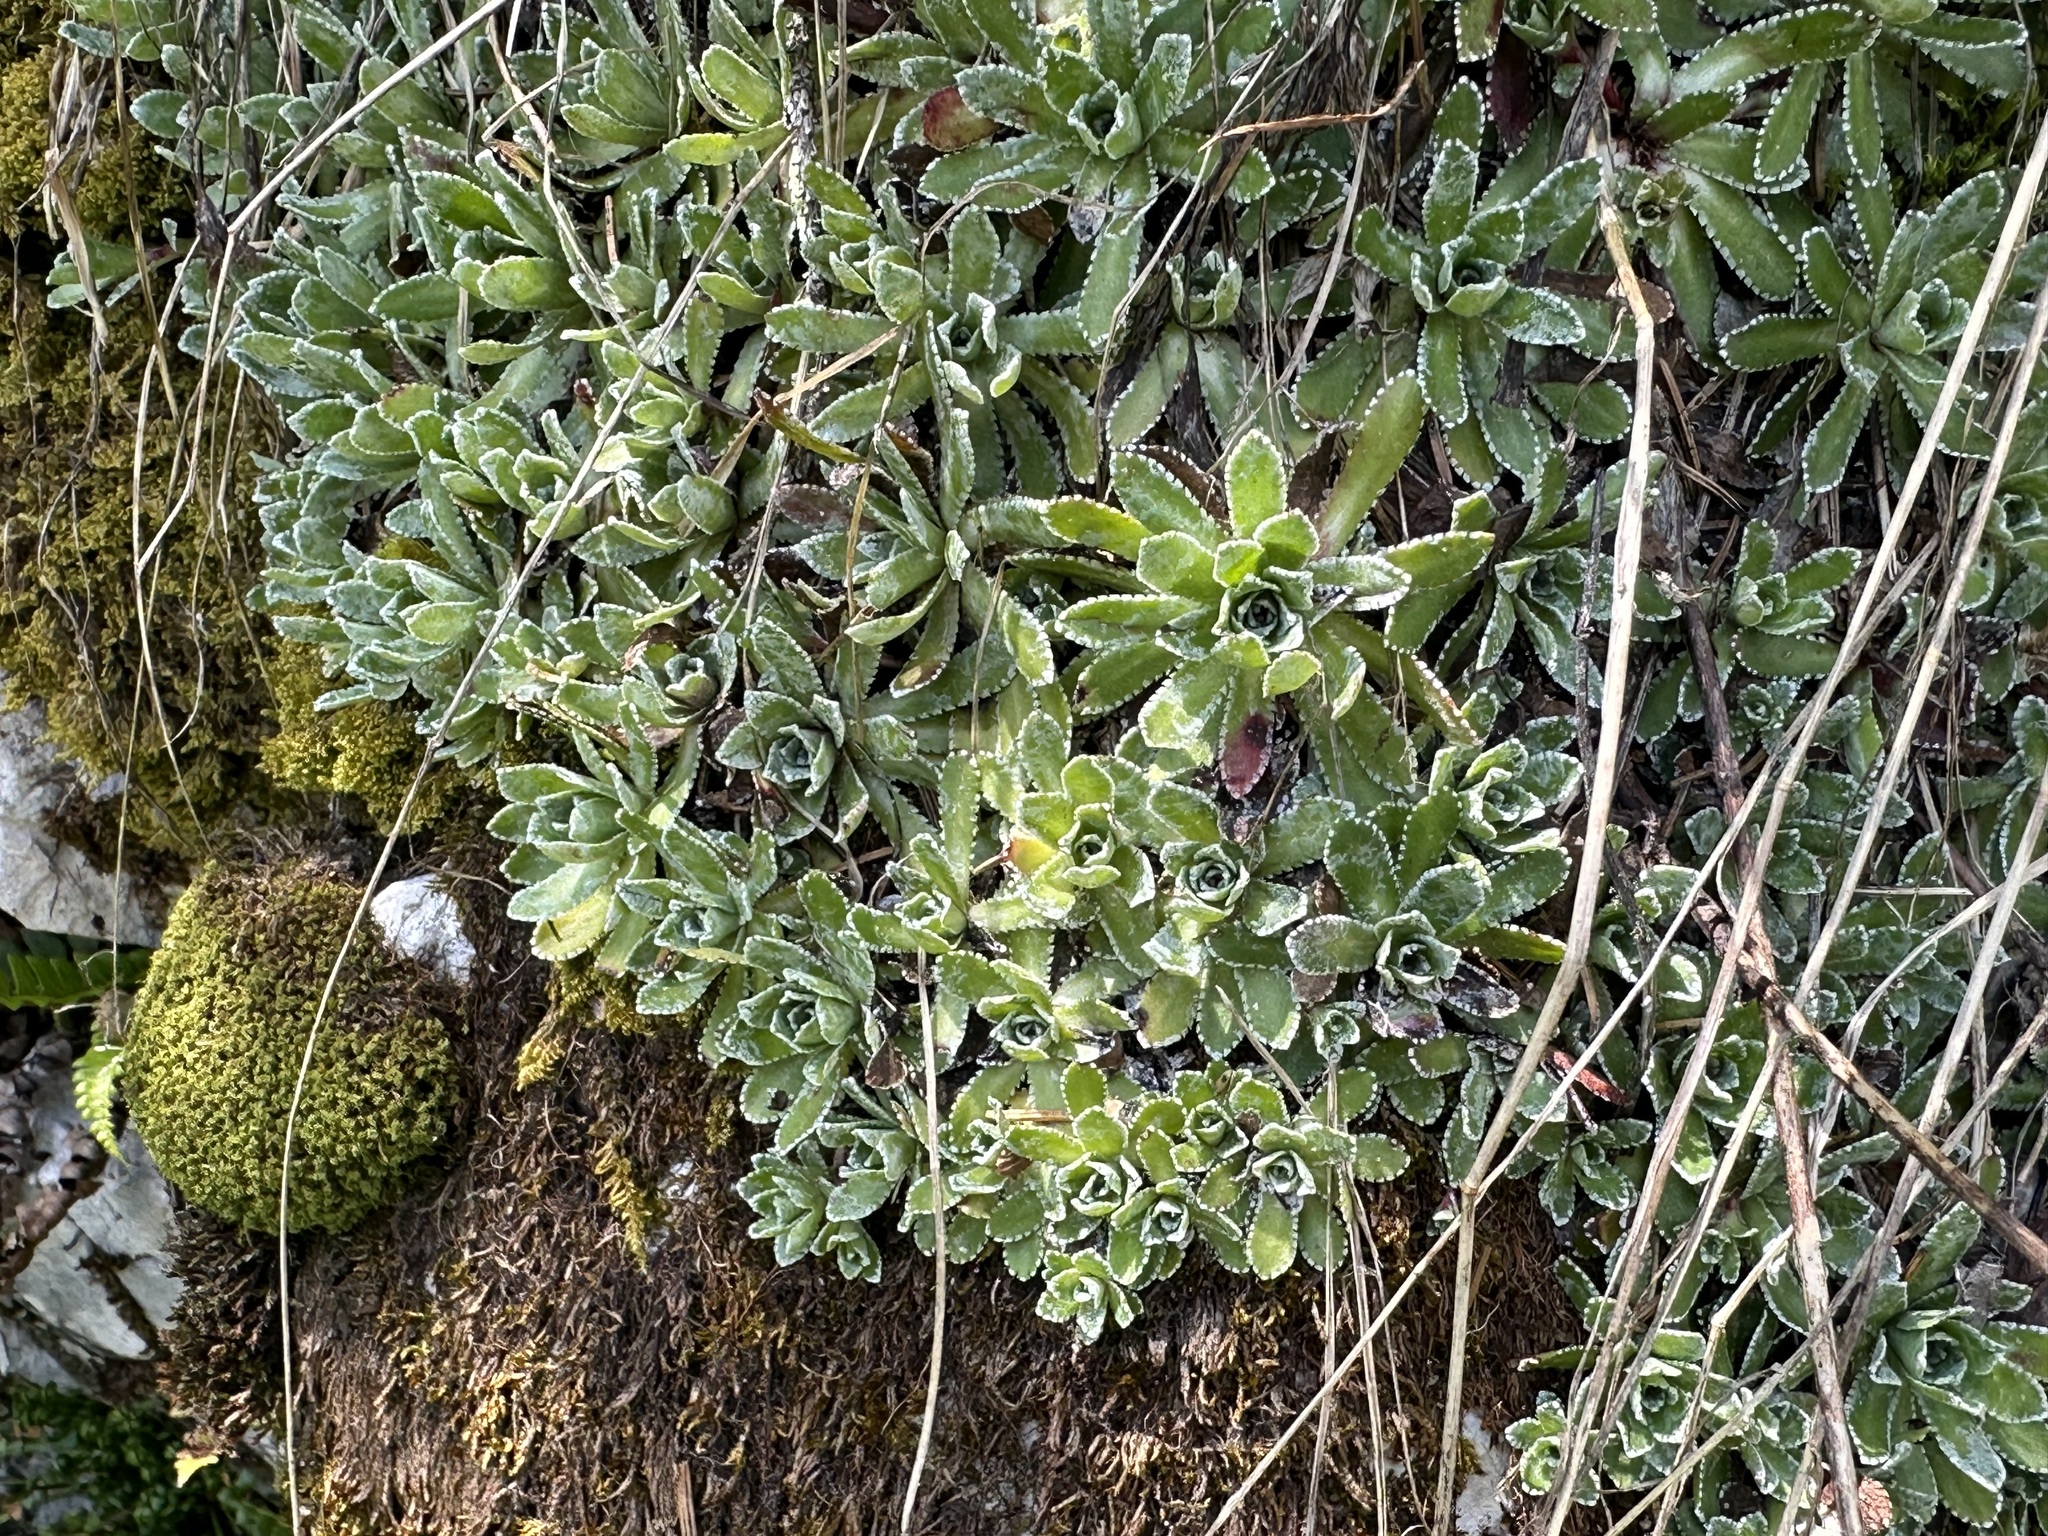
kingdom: Plantae
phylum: Tracheophyta
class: Magnoliopsida
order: Saxifragales
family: Saxifragaceae
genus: Saxifraga
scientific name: Saxifraga paniculata
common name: Livelong saxifrage
